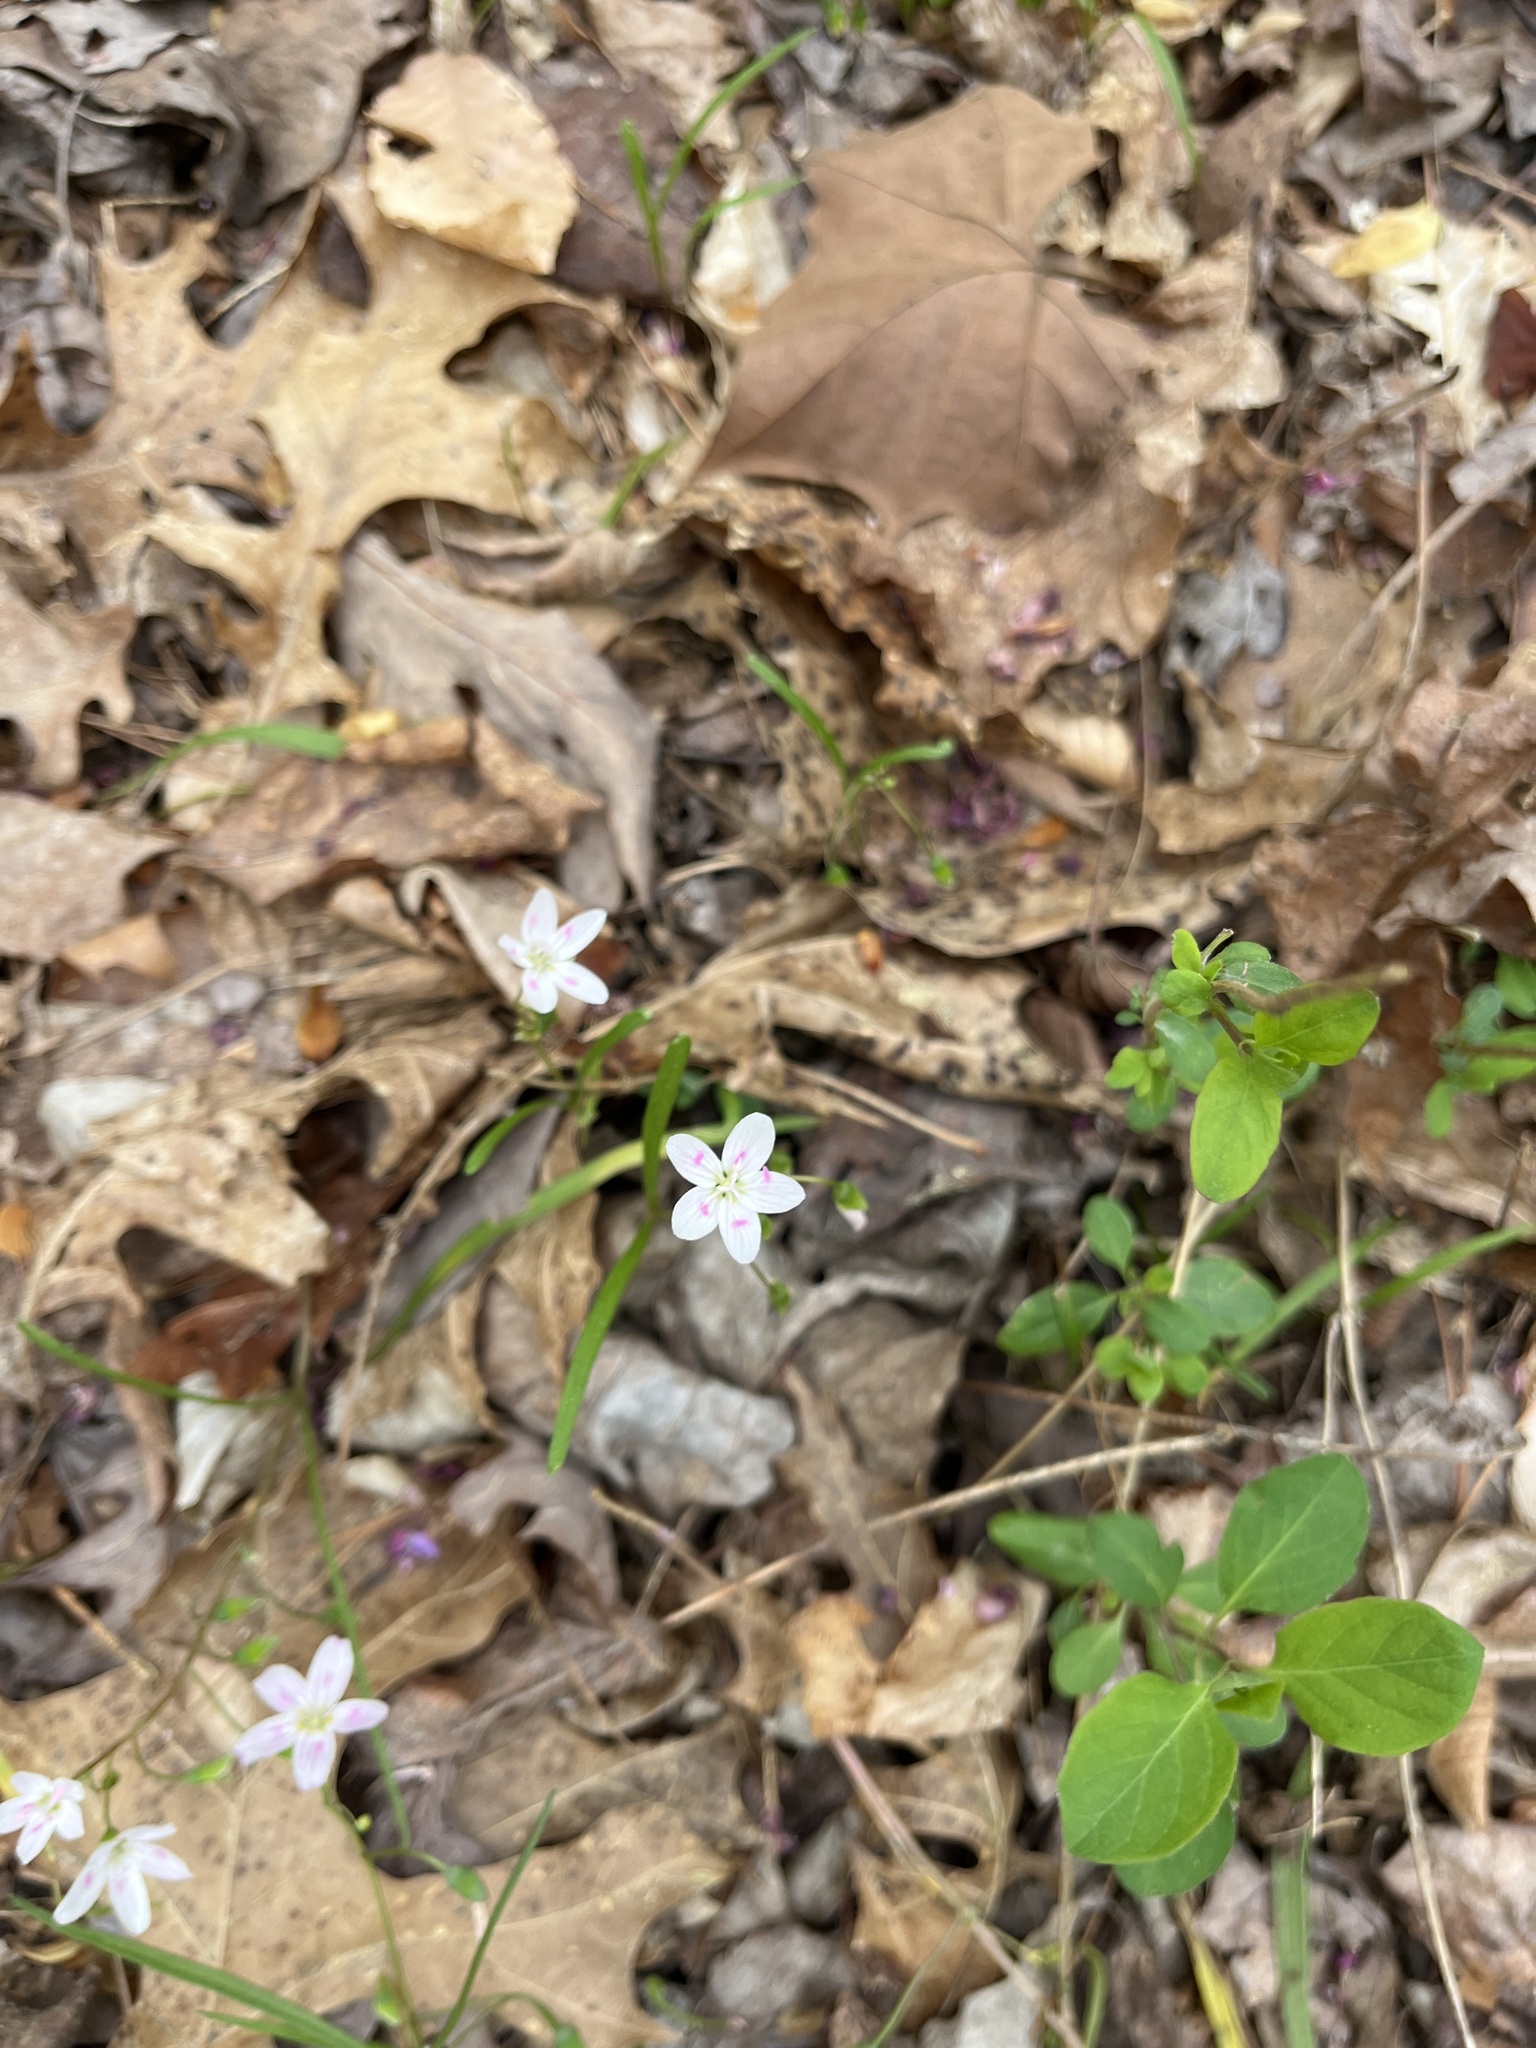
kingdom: Plantae
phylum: Tracheophyta
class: Magnoliopsida
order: Caryophyllales
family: Montiaceae
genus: Claytonia
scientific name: Claytonia virginica
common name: Virginia springbeauty
